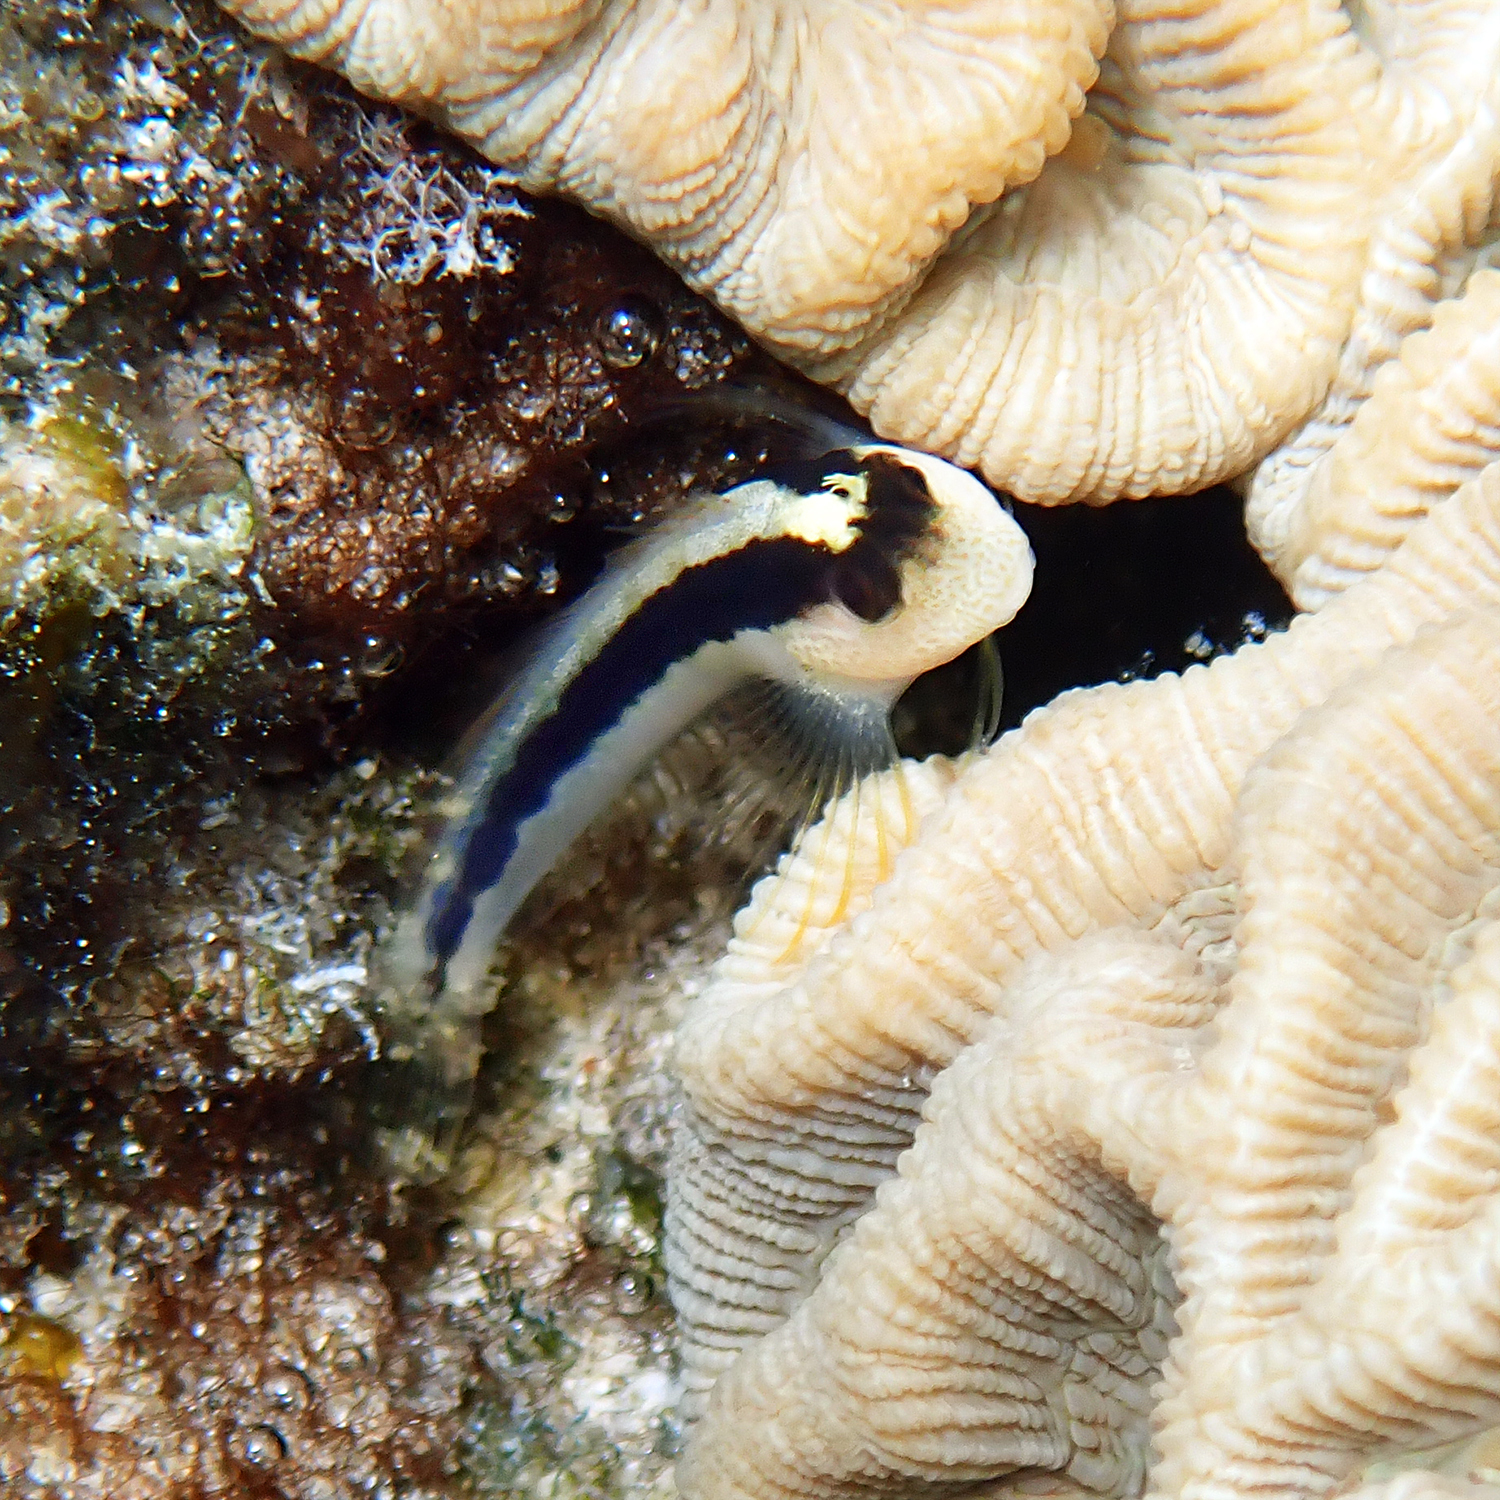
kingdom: Animalia
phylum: Chordata
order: Perciformes
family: Blenniidae
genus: Parablennius
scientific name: Parablennius serratolineatus
